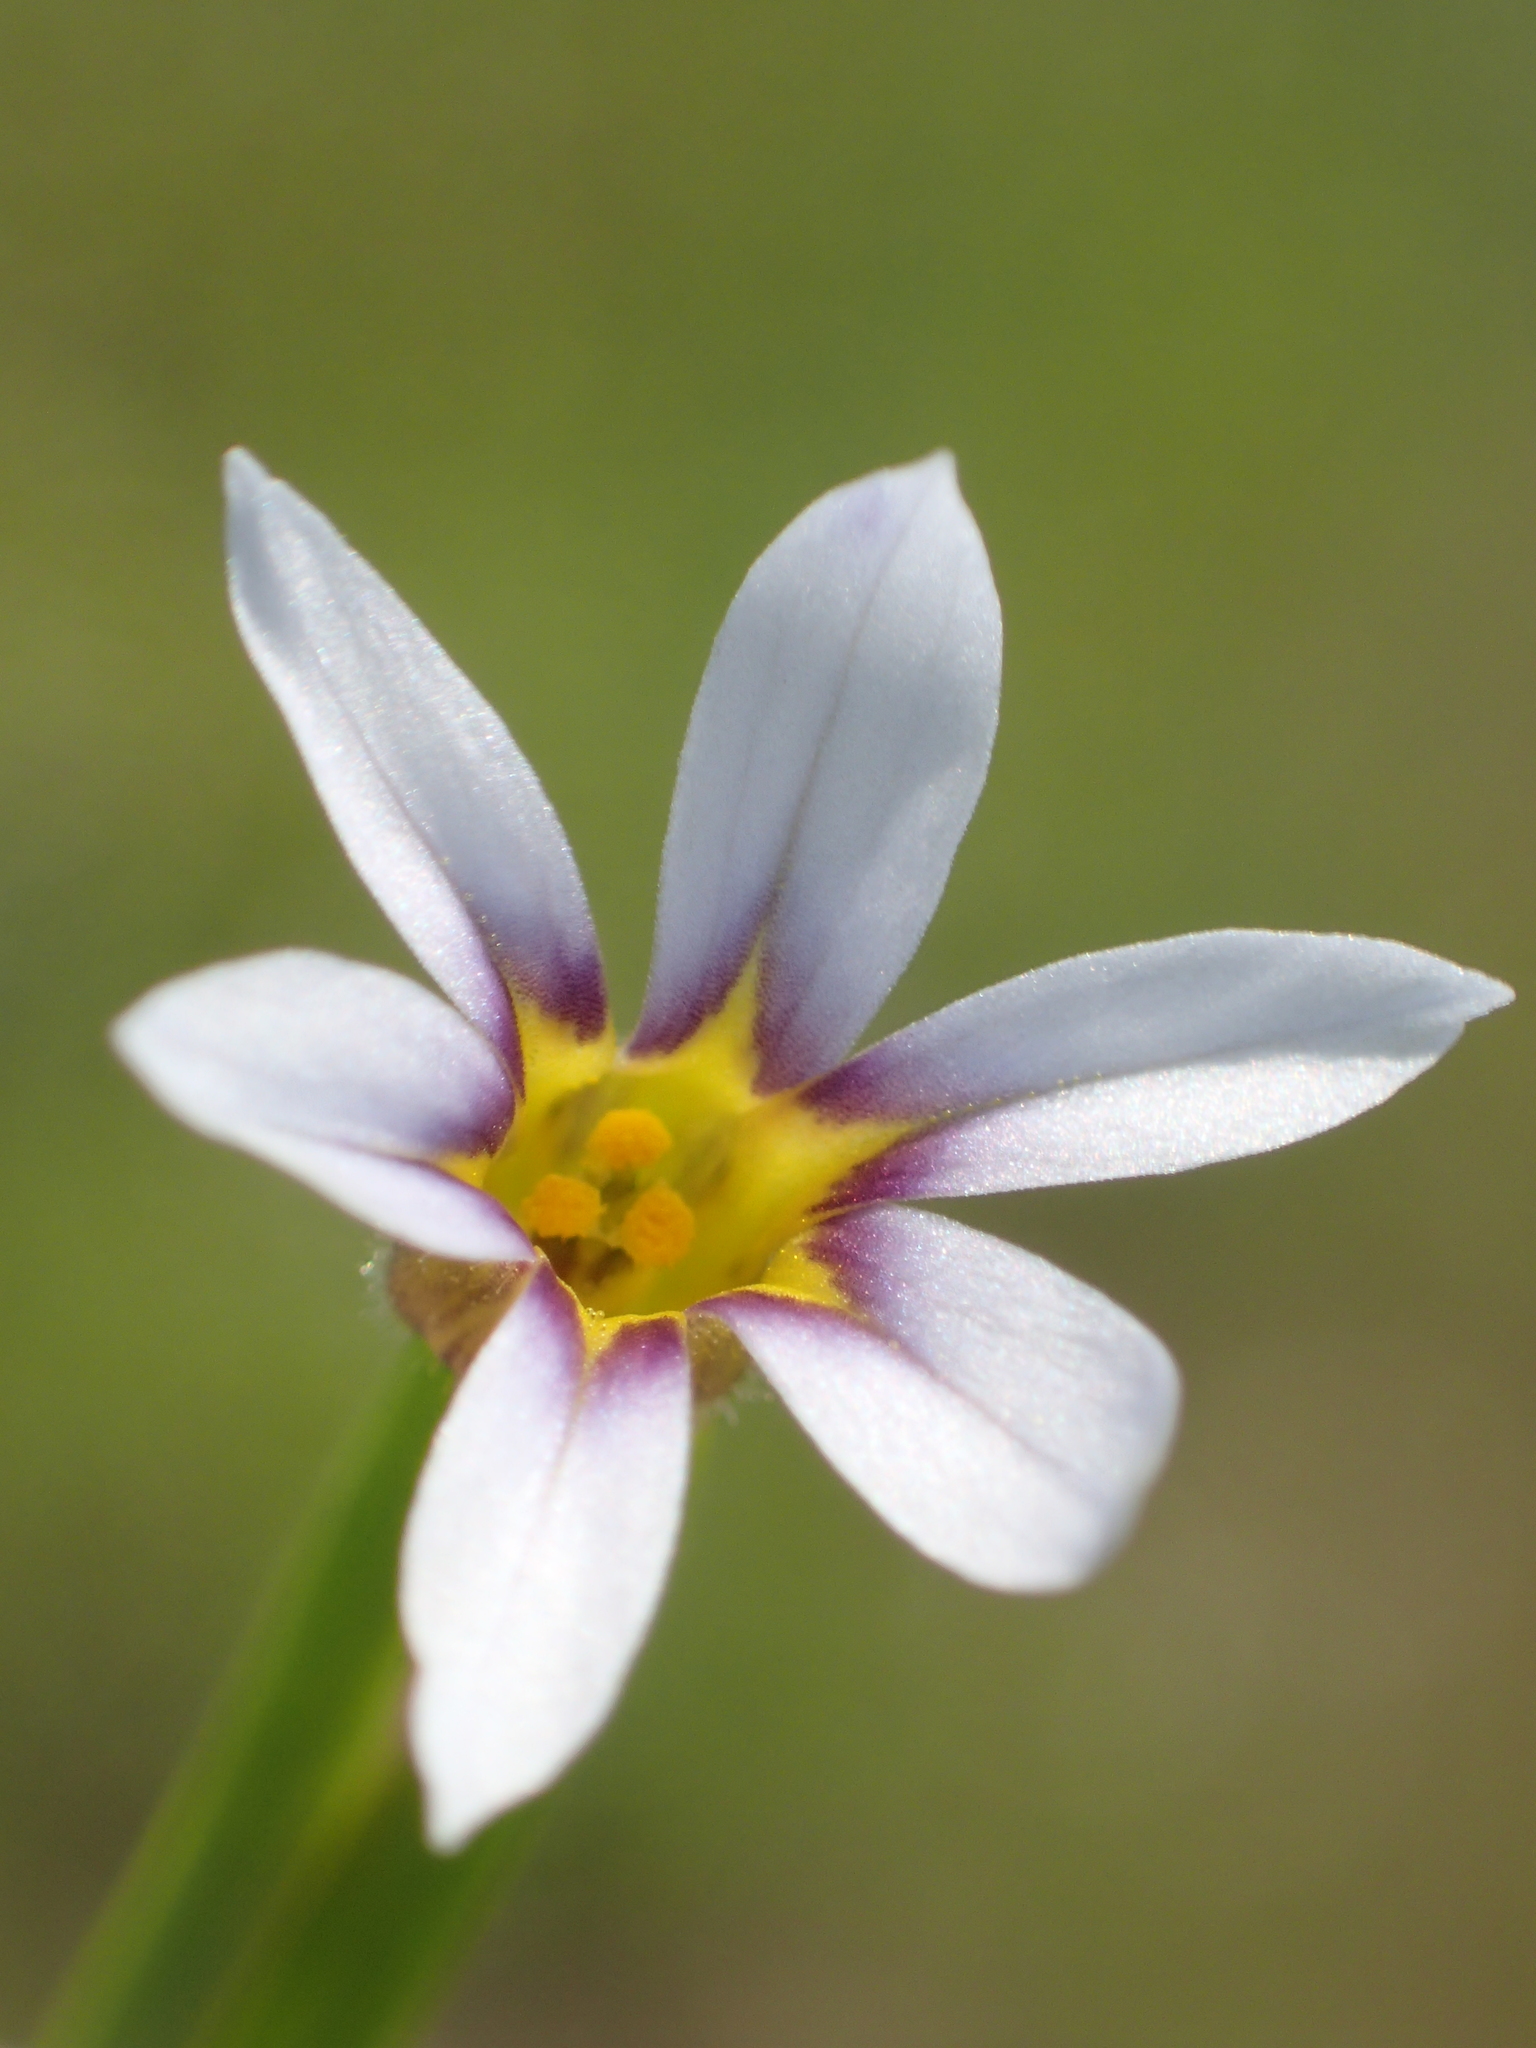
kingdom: Plantae
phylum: Tracheophyta
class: Liliopsida
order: Asparagales
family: Iridaceae
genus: Sisyrinchium
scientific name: Sisyrinchium micranthum
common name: Bermuda pigroot
